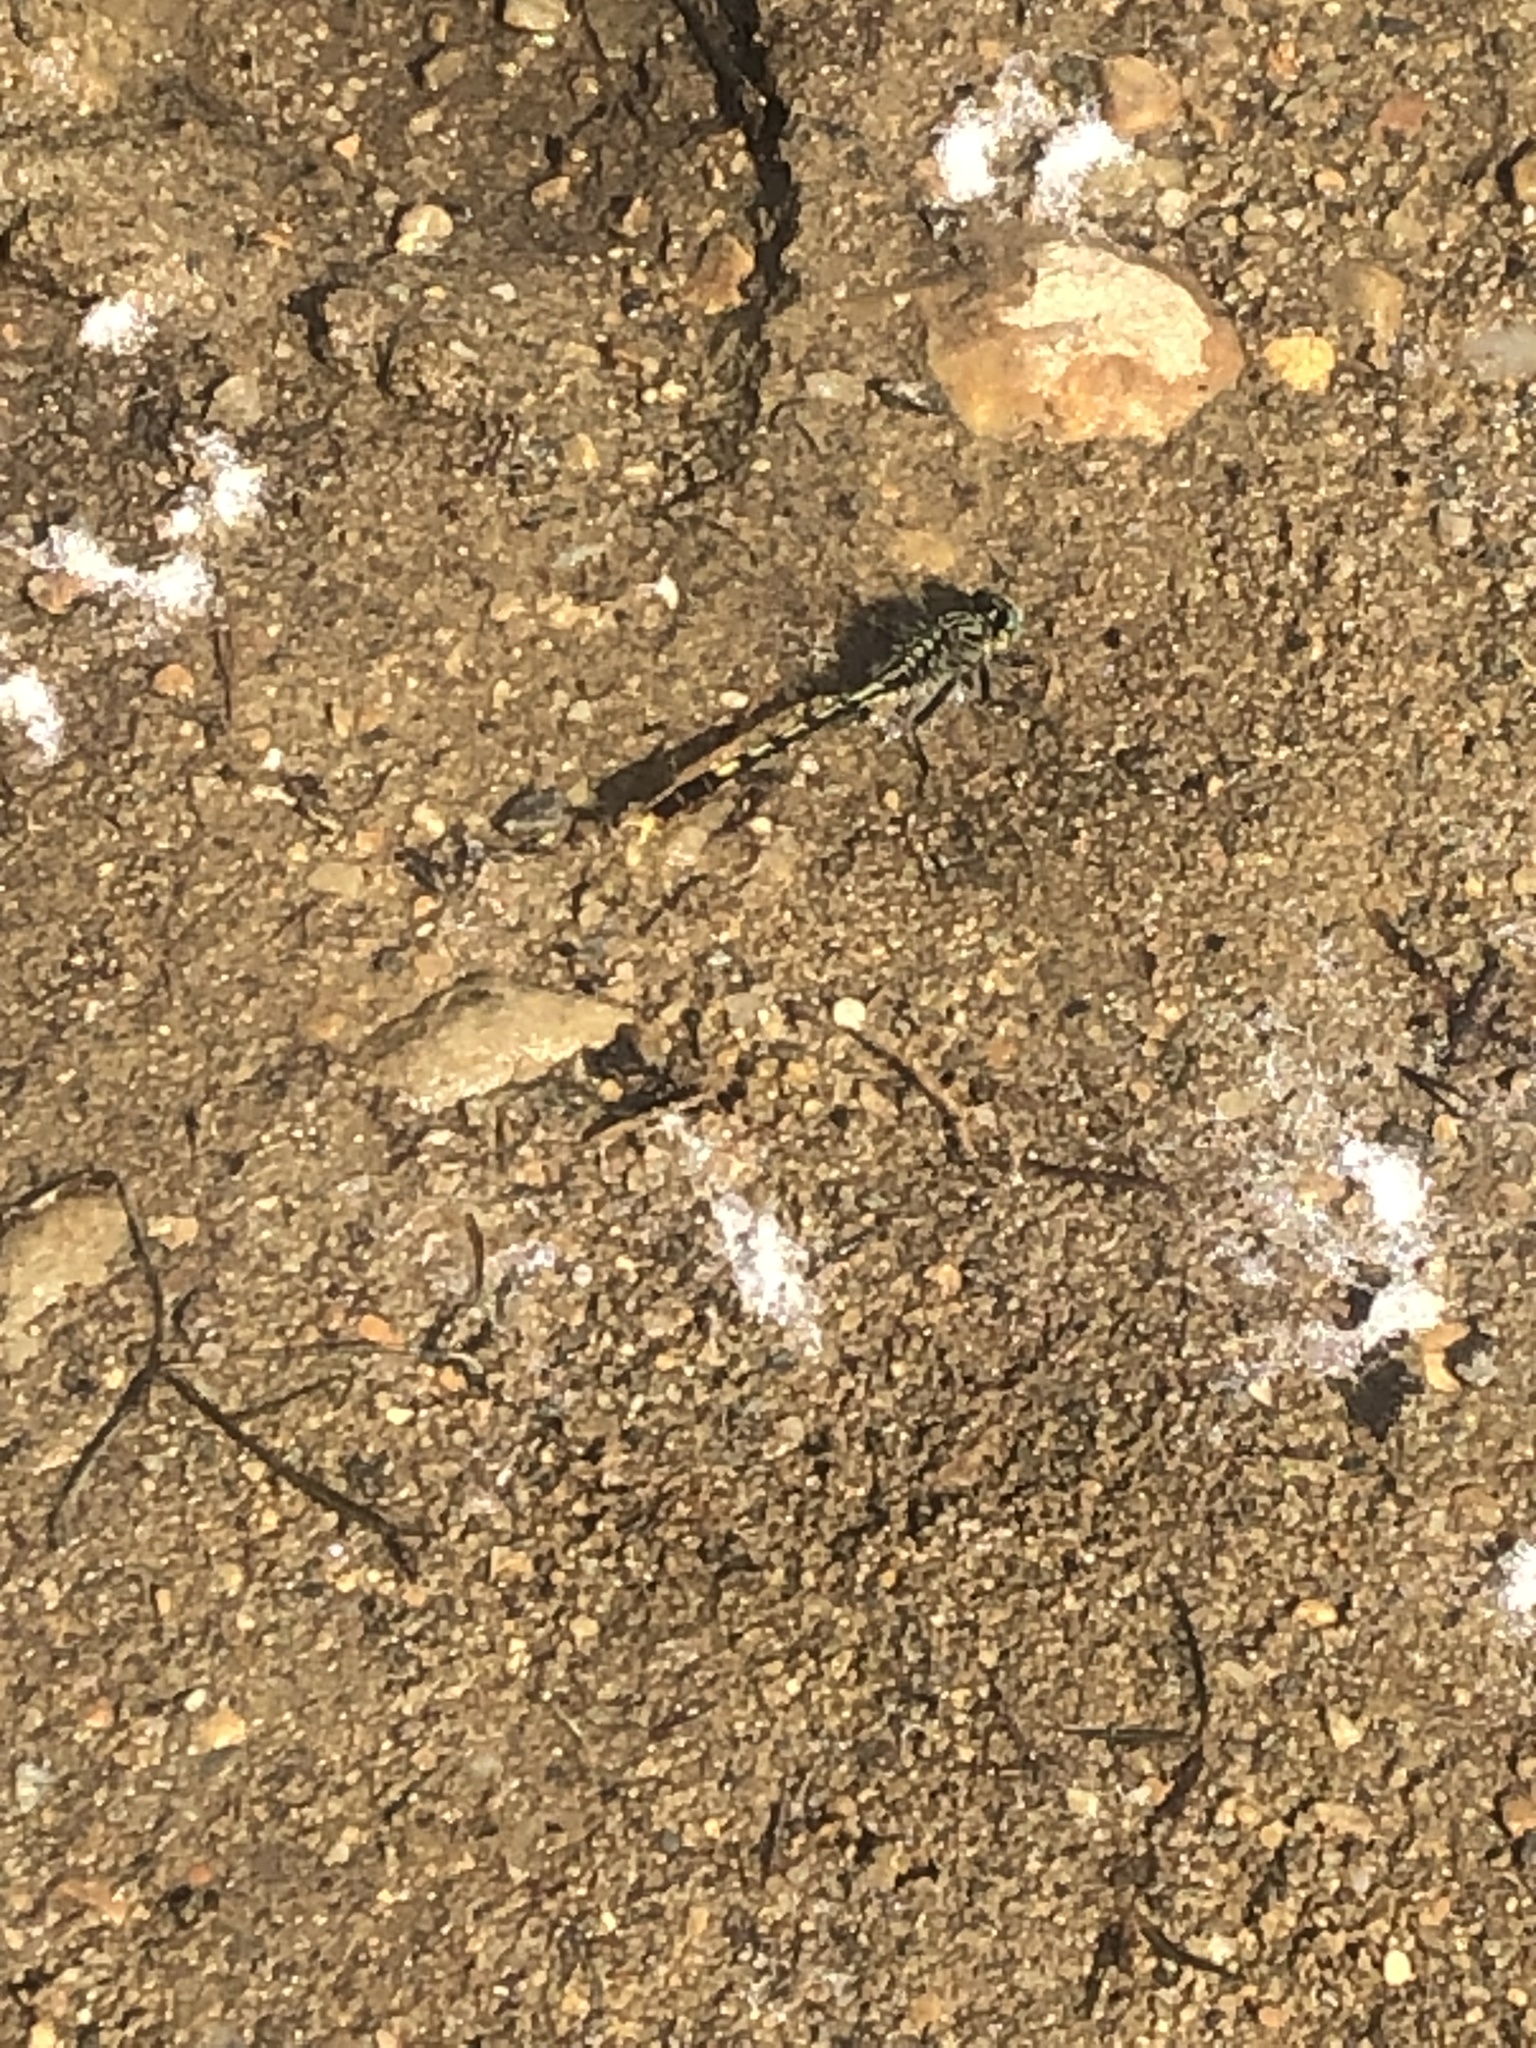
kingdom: Animalia
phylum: Arthropoda
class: Insecta
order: Odonata
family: Gomphidae
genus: Arigomphus
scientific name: Arigomphus villosipes
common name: Unicorn clubtail
